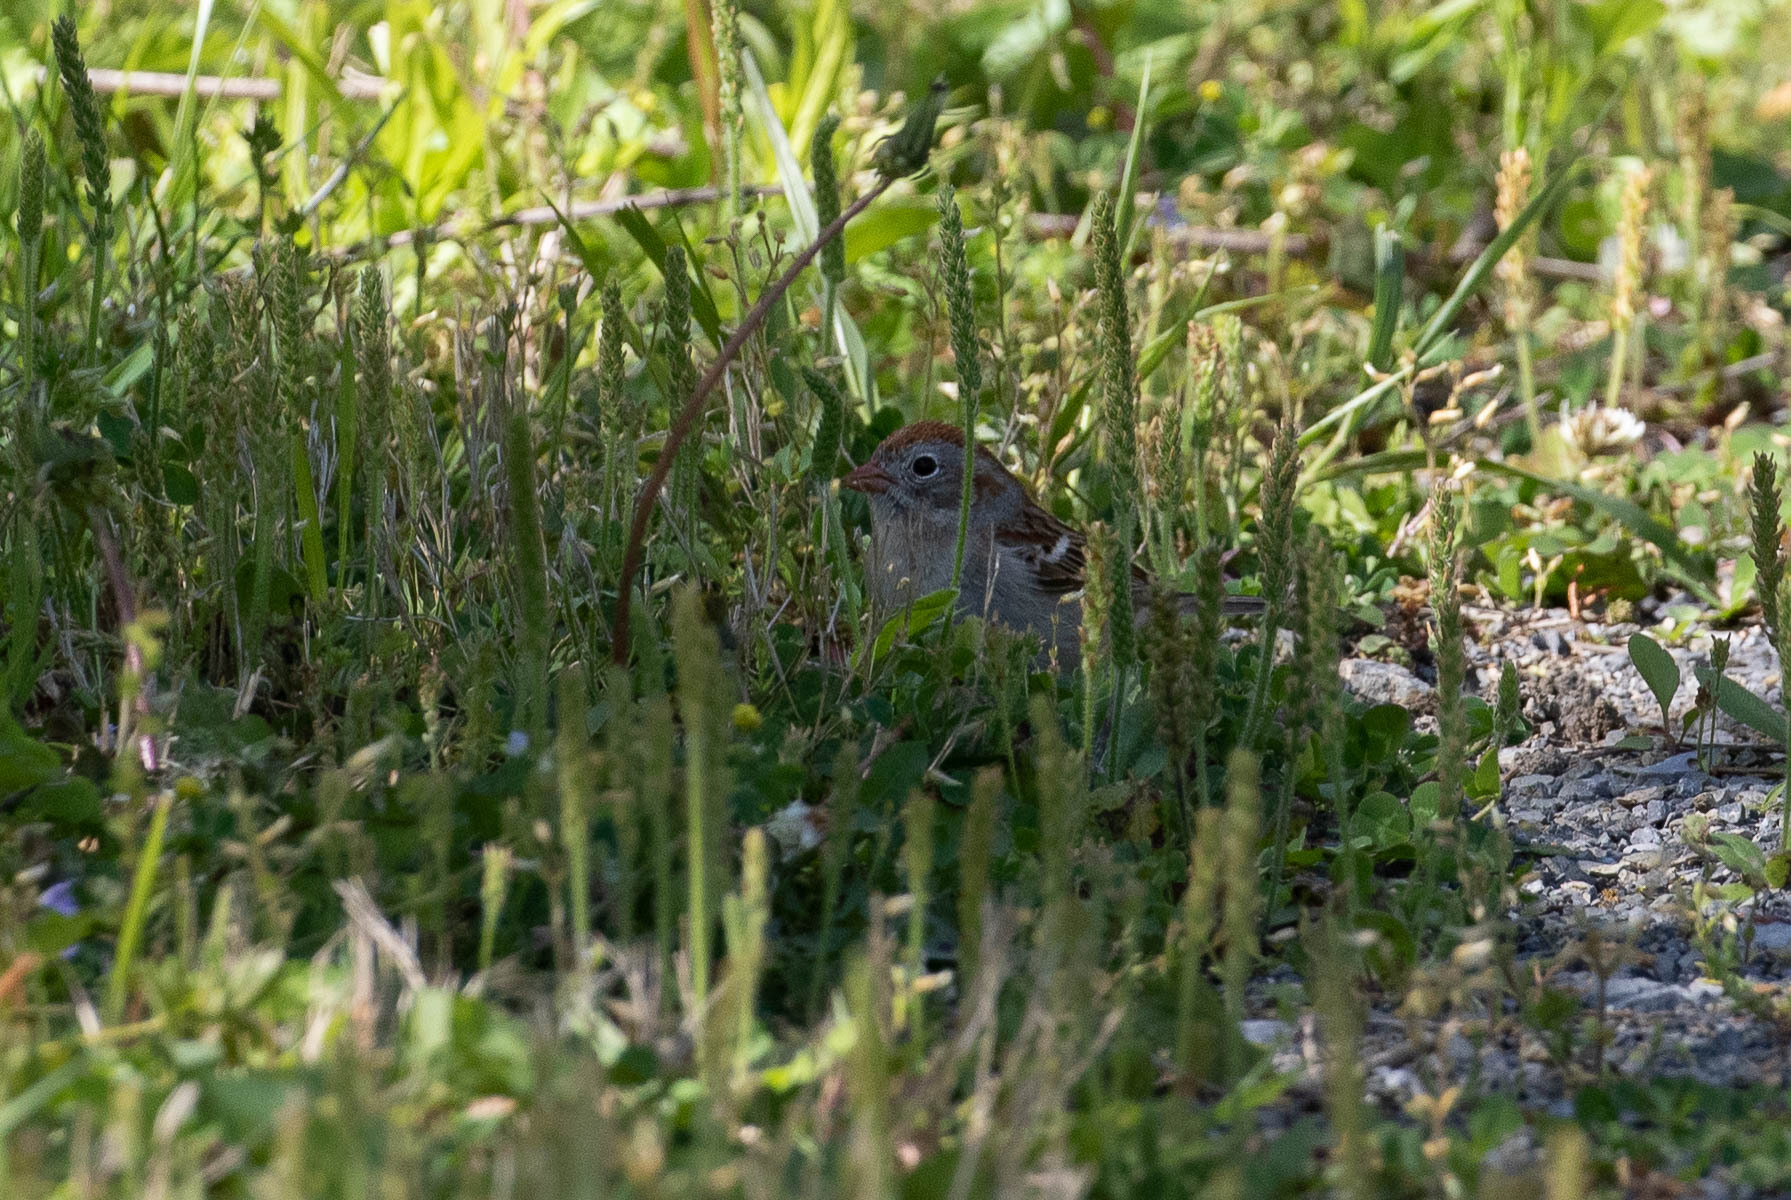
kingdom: Animalia
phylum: Chordata
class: Aves
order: Passeriformes
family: Passerellidae
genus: Spizella
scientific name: Spizella pusilla
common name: Field sparrow
